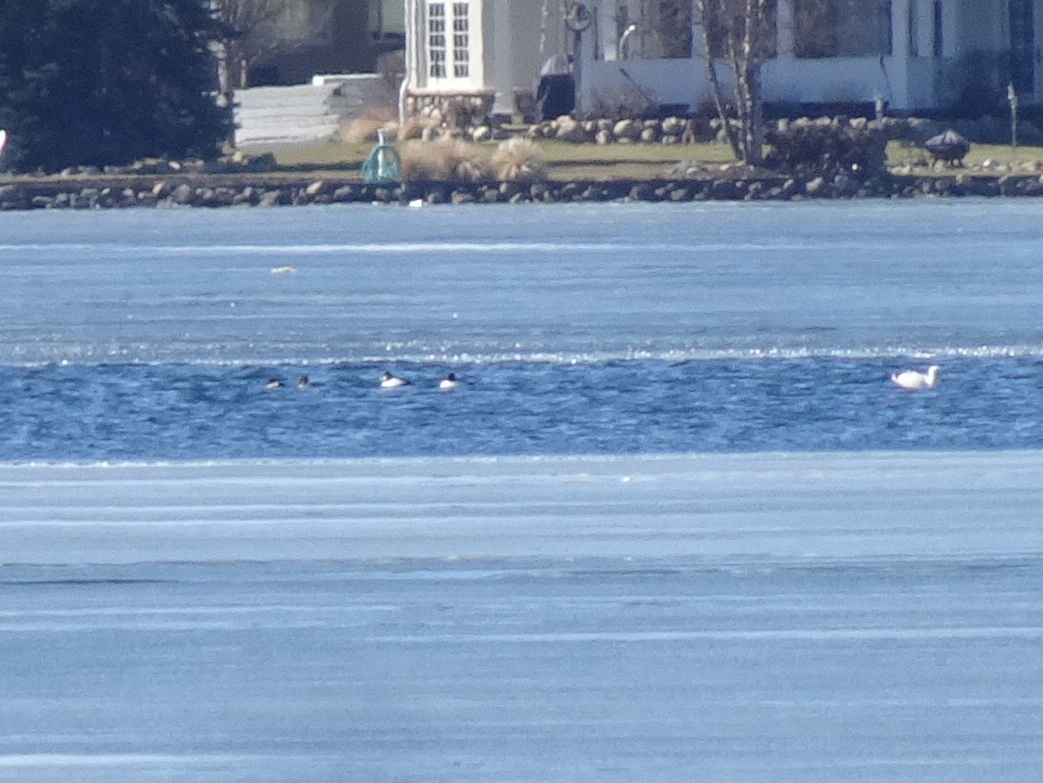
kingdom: Animalia
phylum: Chordata
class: Aves
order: Anseriformes
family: Anatidae
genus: Bucephala
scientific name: Bucephala clangula
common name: Common goldeneye
